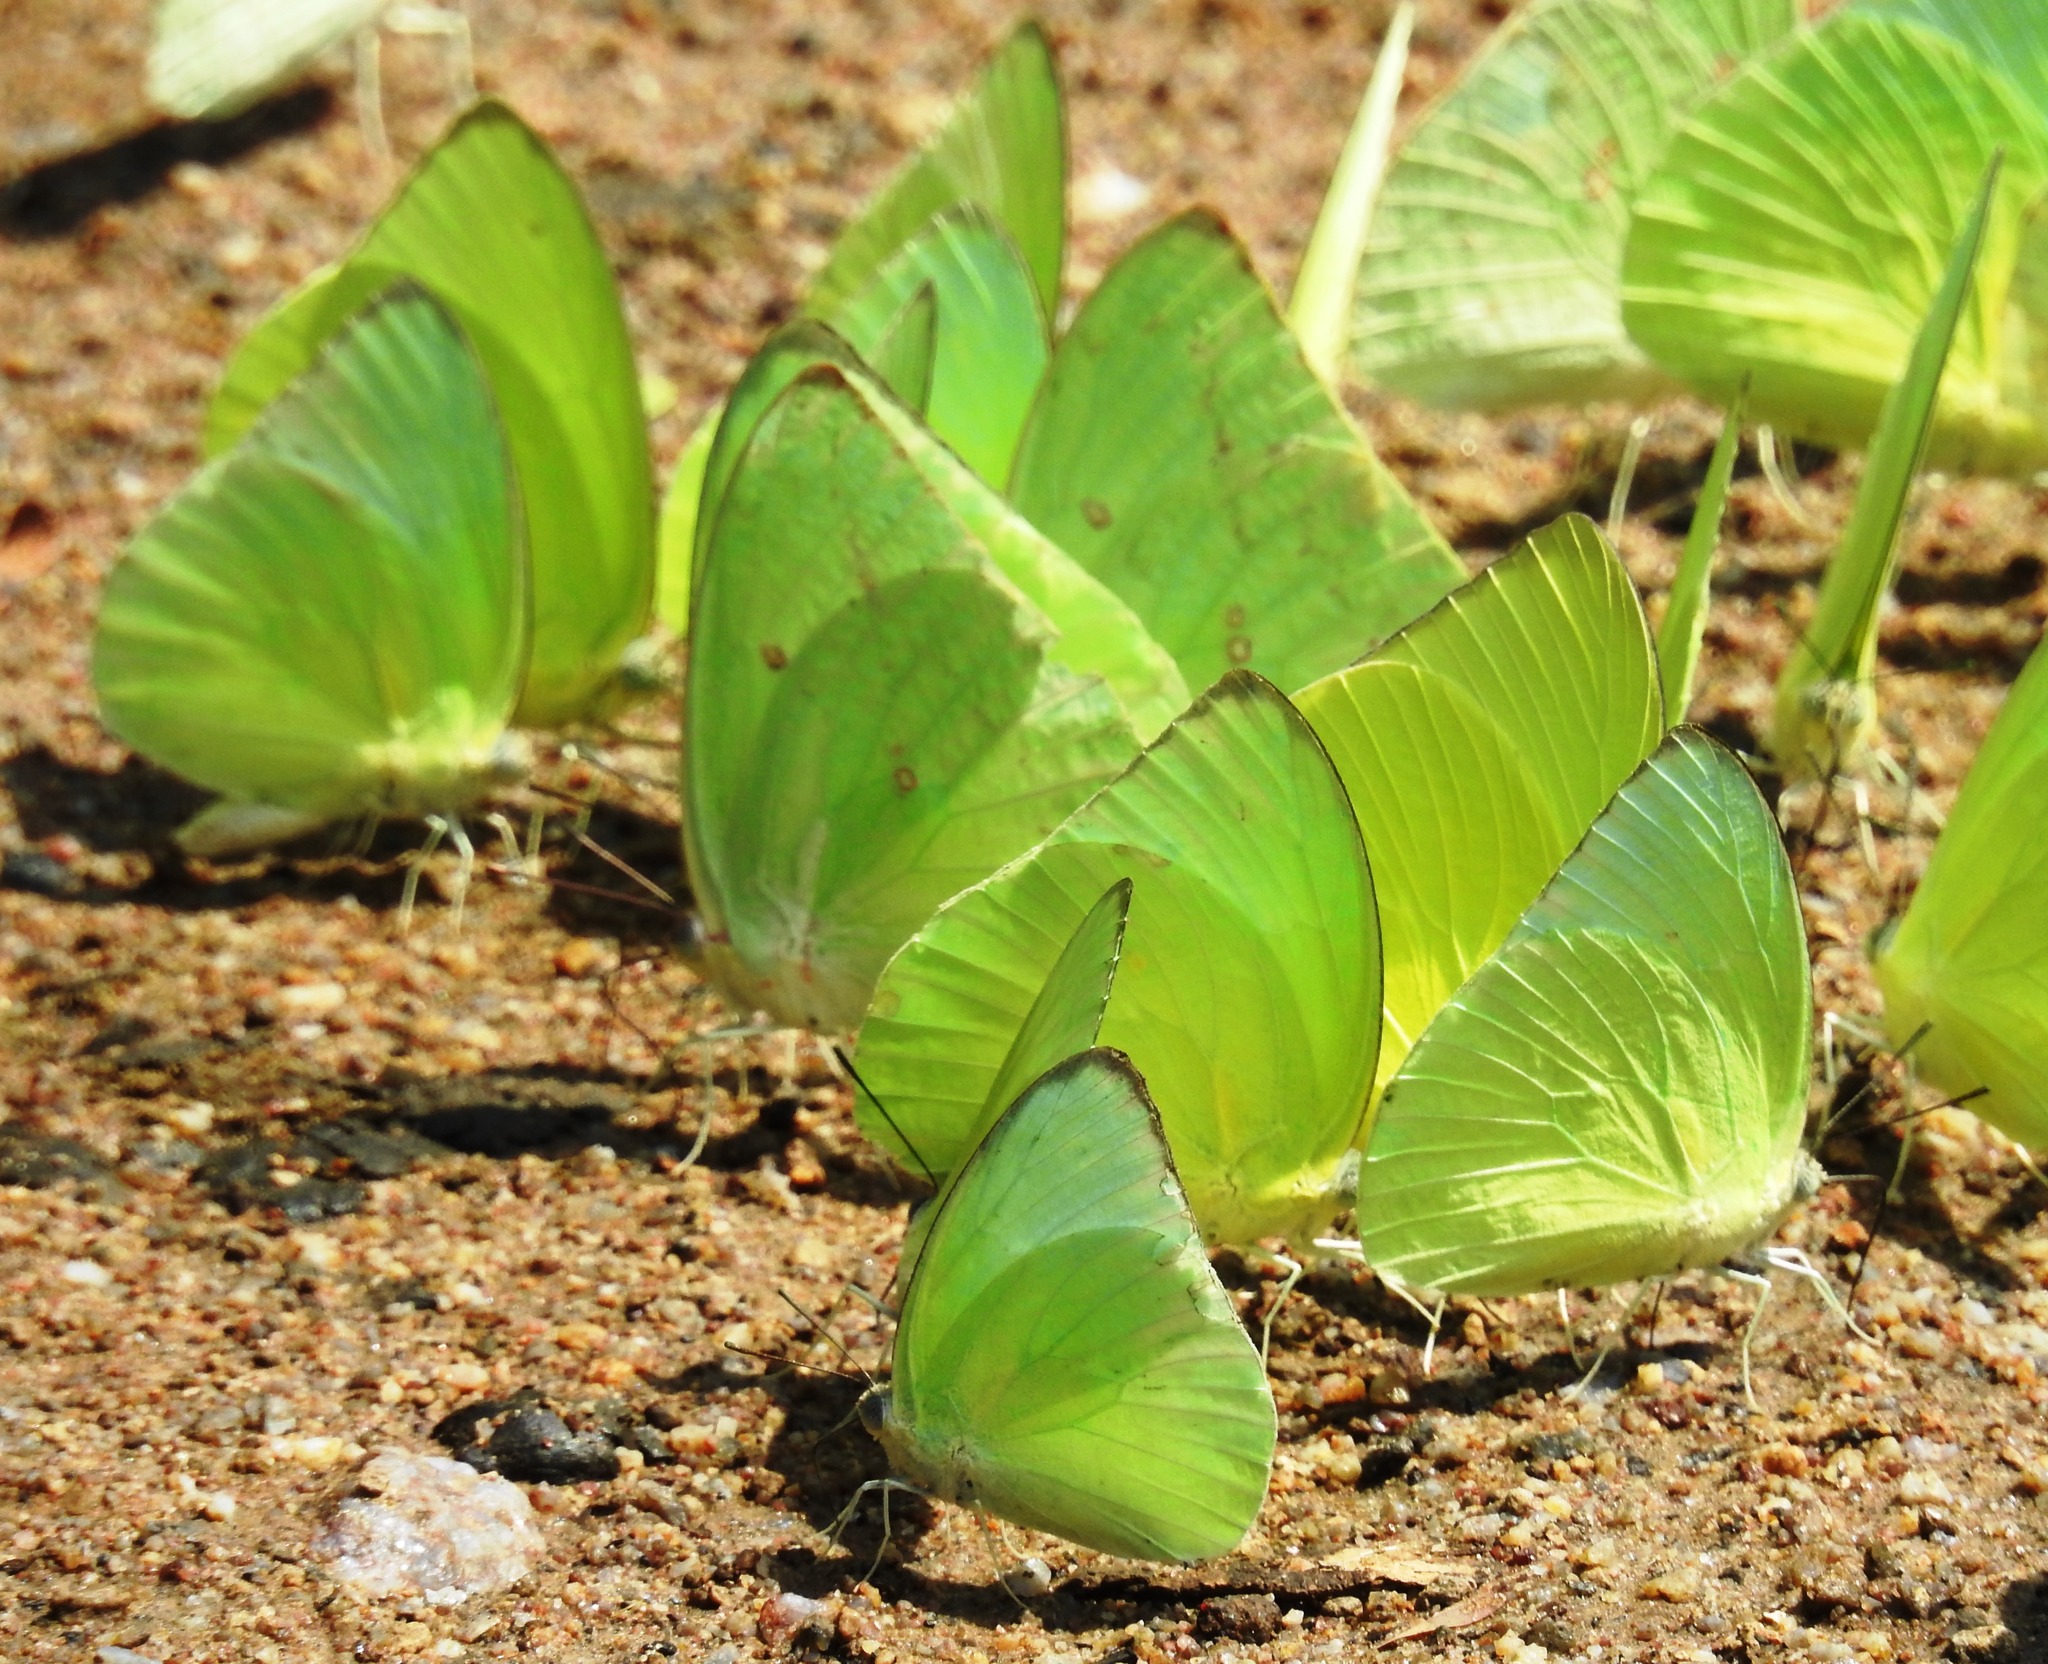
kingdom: Animalia
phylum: Arthropoda
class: Insecta
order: Lepidoptera
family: Pieridae
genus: Catopsilia
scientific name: Catopsilia pomona
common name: Common emigrant
